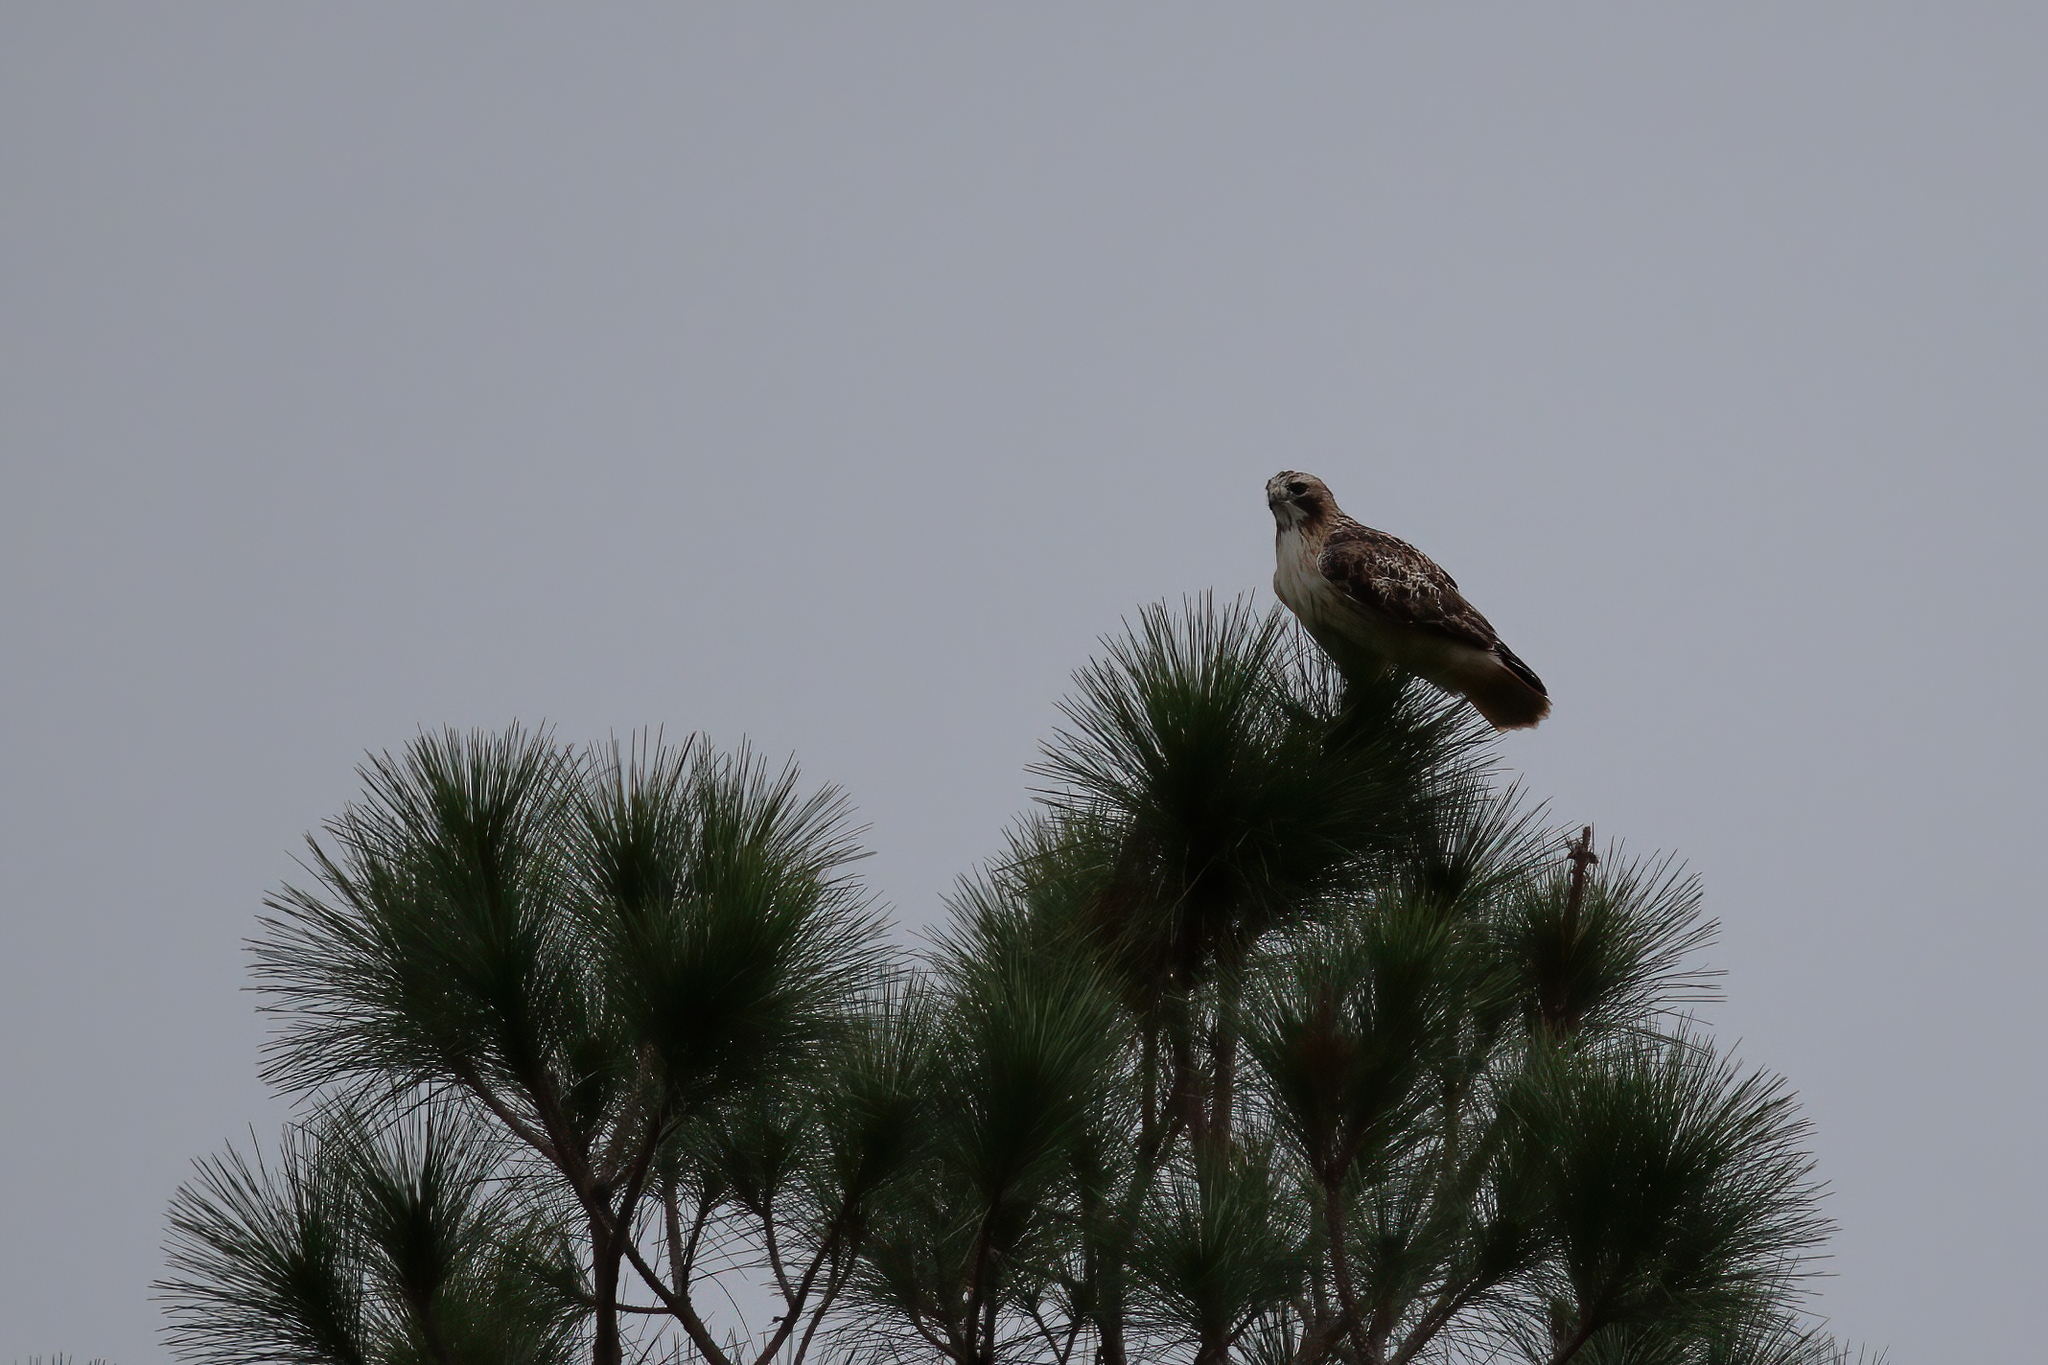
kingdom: Animalia
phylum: Chordata
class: Aves
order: Accipitriformes
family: Accipitridae
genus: Buteo
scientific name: Buteo jamaicensis
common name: Red-tailed hawk
